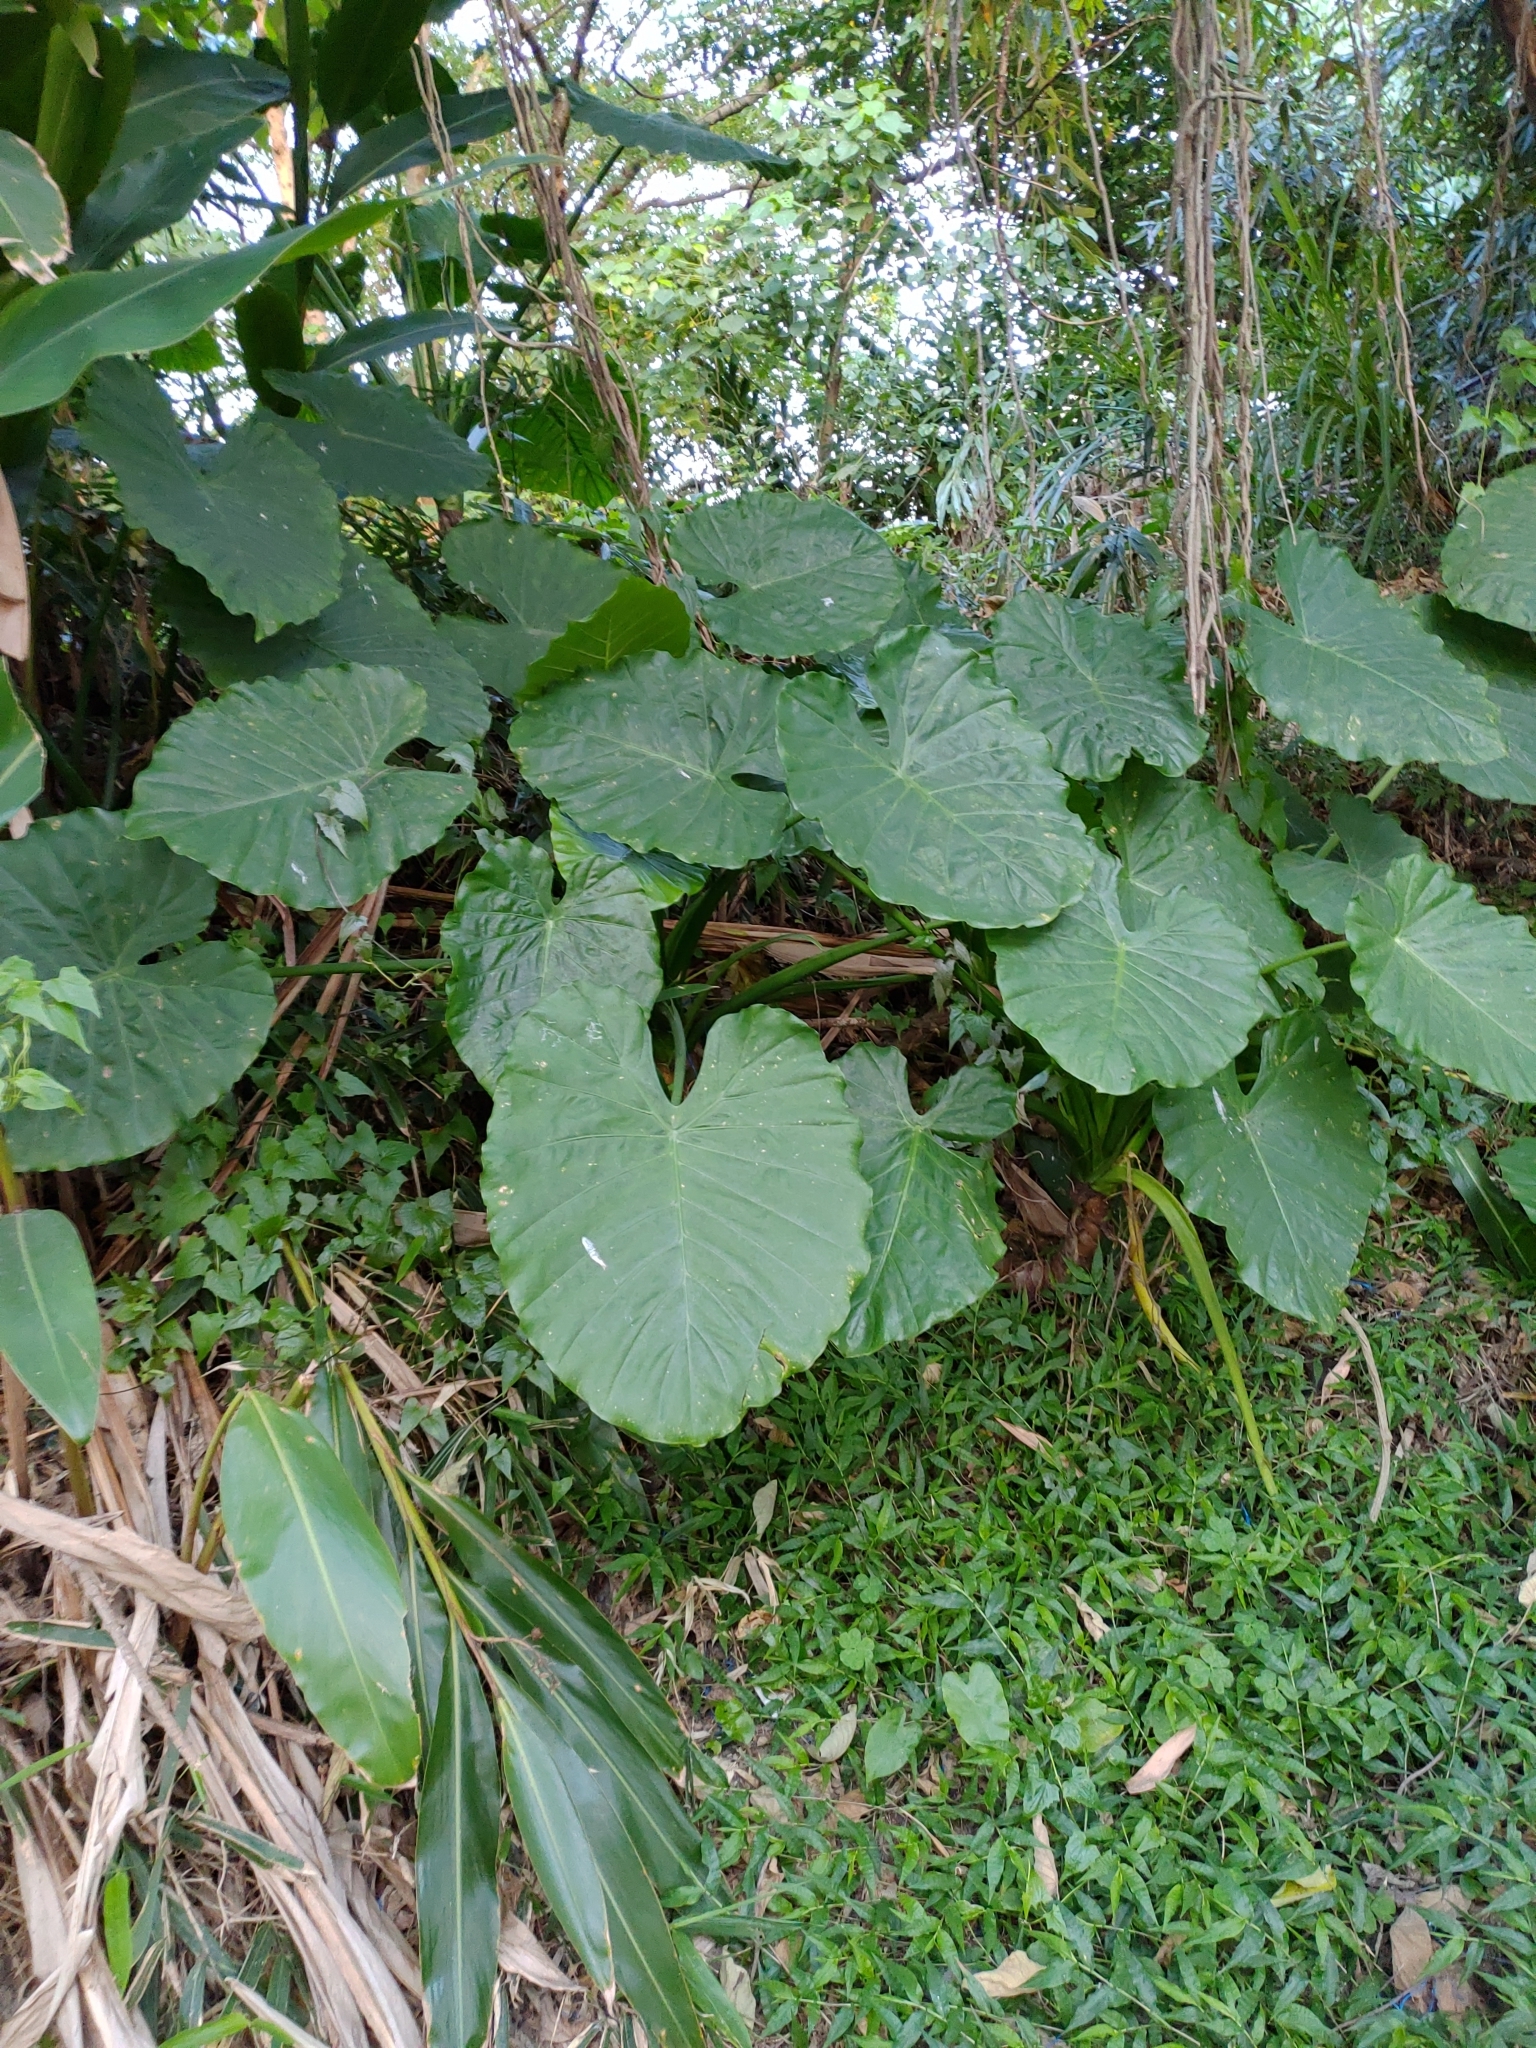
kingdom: Plantae
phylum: Tracheophyta
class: Liliopsida
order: Alismatales
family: Araceae
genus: Alocasia
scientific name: Alocasia odora
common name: Asian taro
